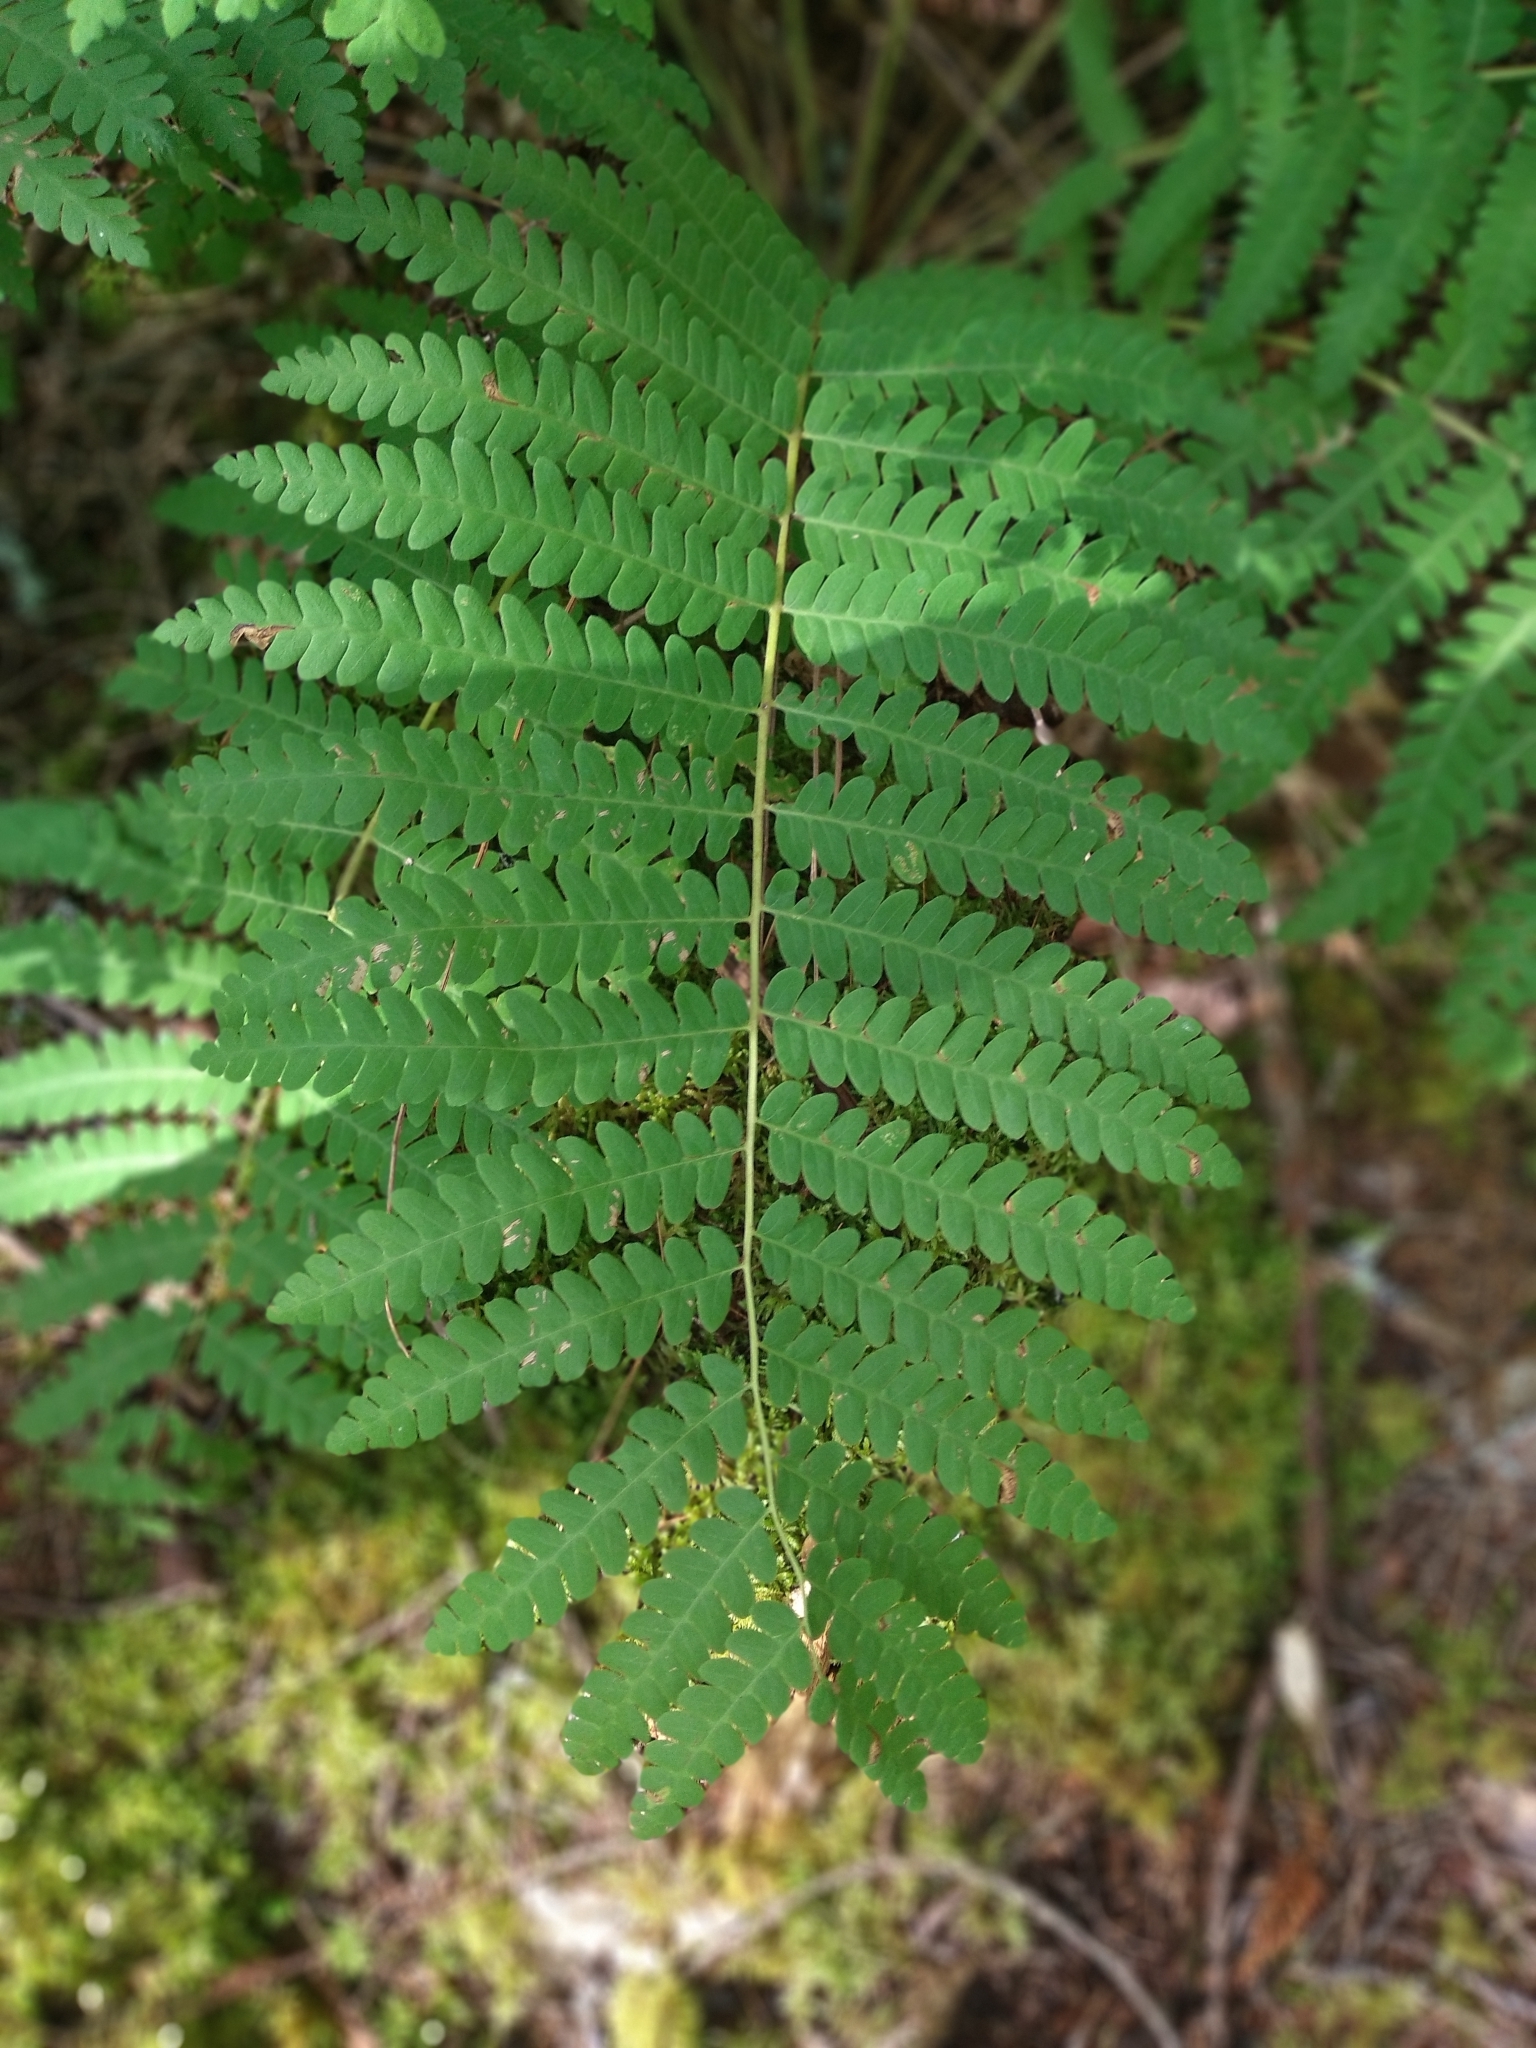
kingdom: Plantae
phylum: Tracheophyta
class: Polypodiopsida
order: Osmundales
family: Osmundaceae
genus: Claytosmunda
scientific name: Claytosmunda claytoniana
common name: Clayton's fern
